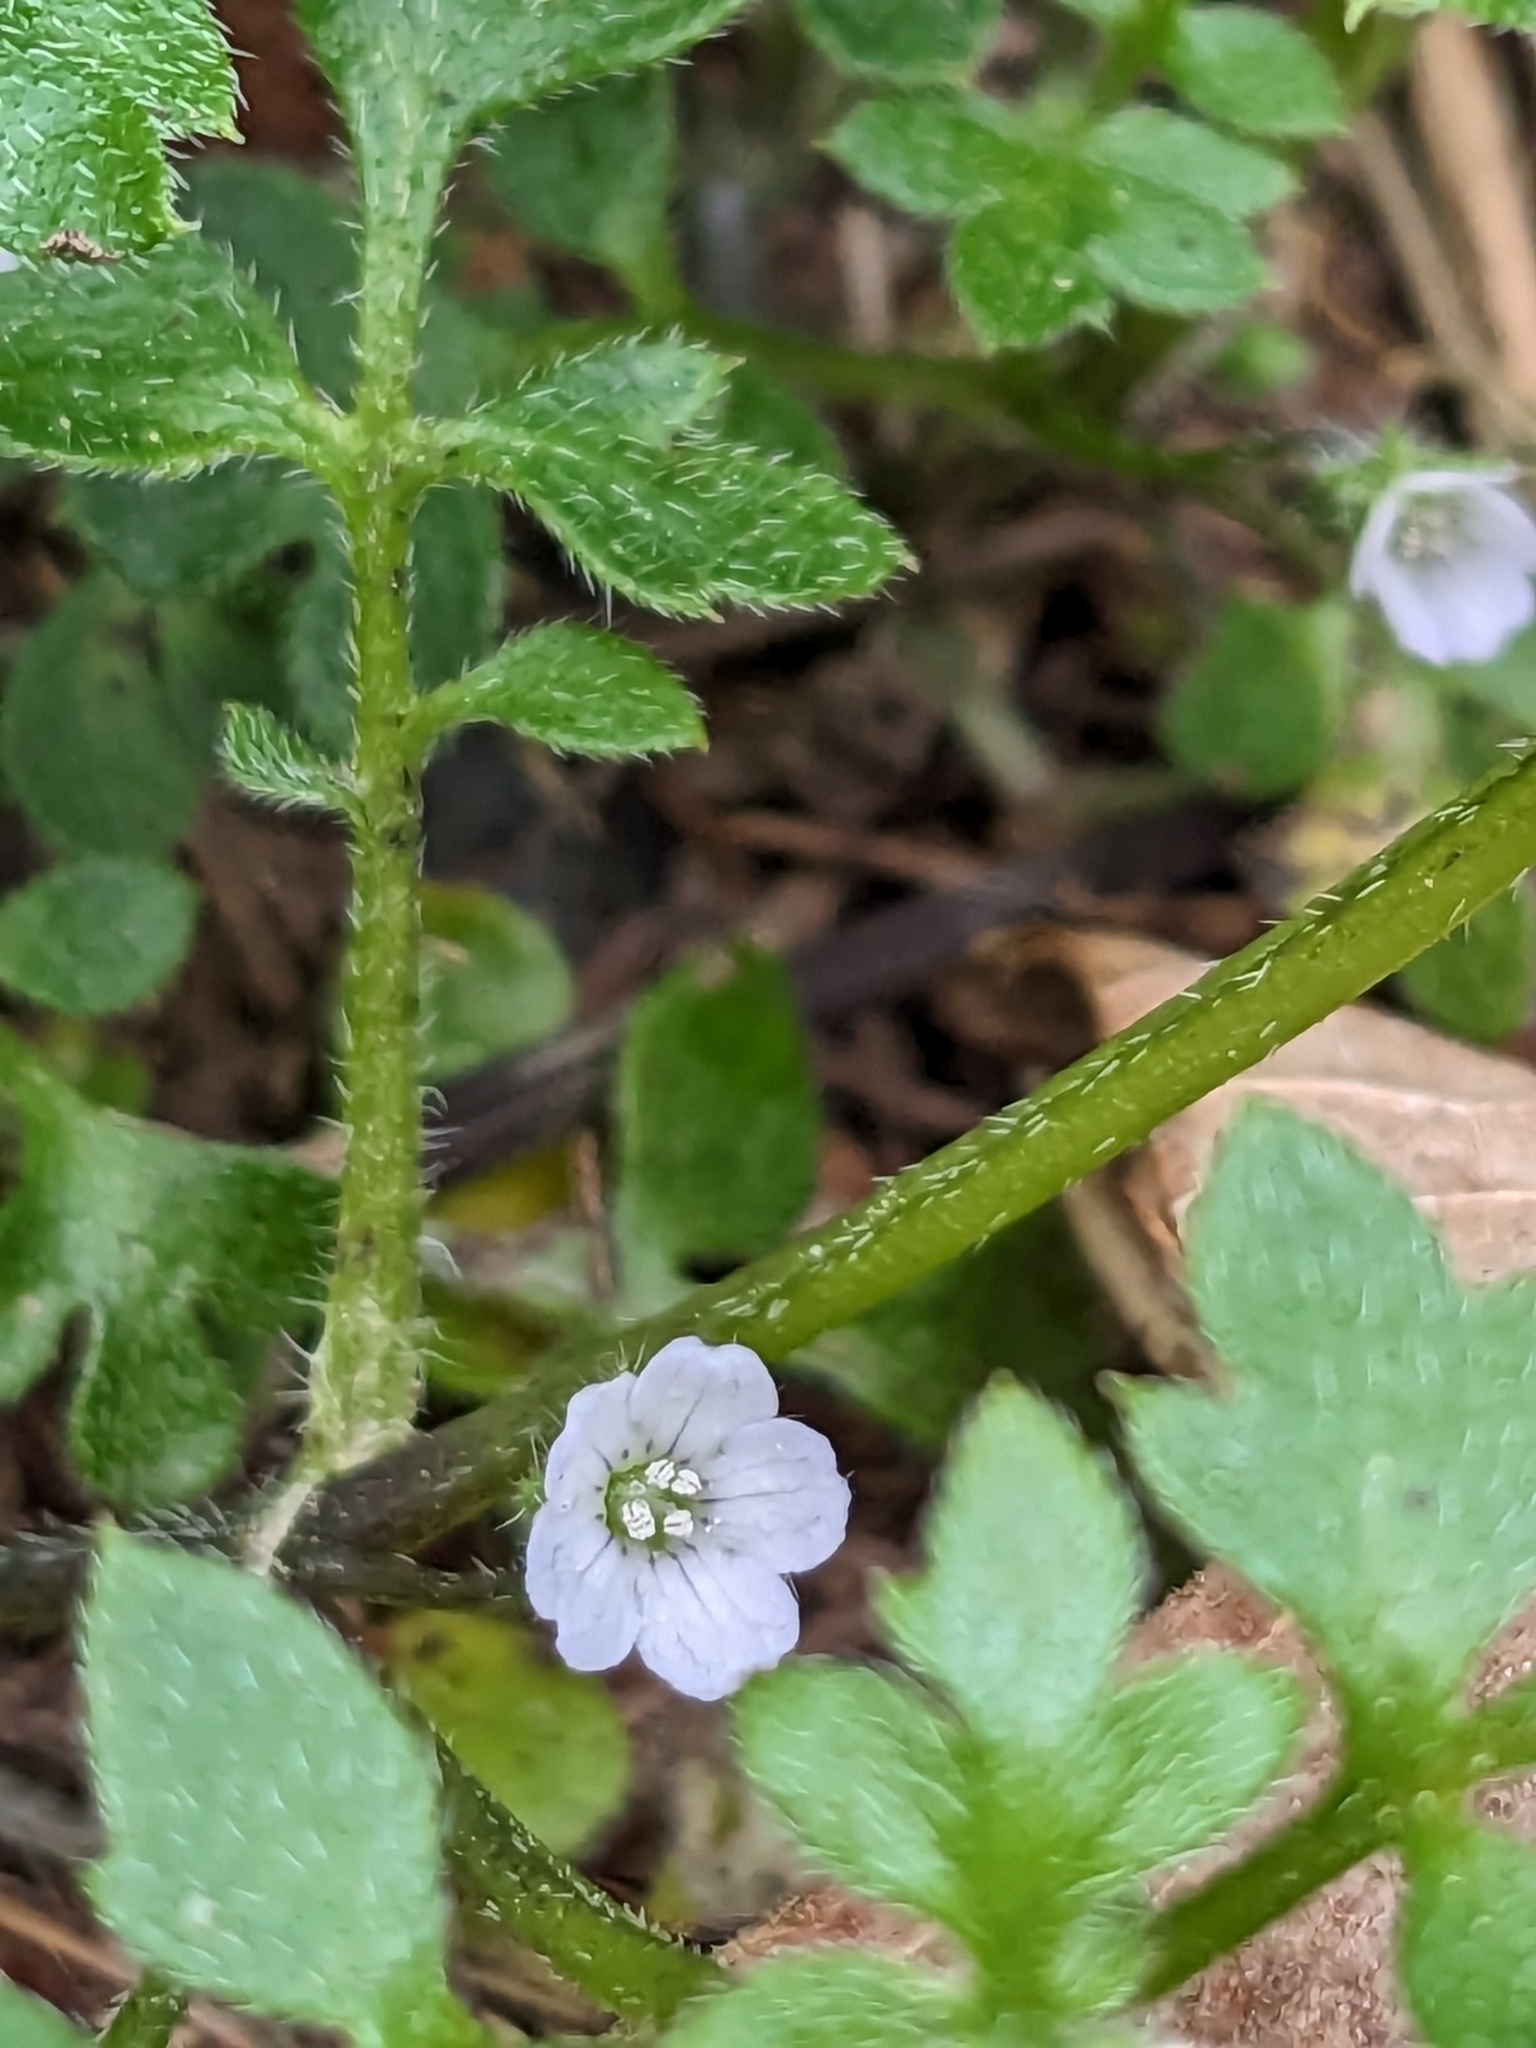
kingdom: Plantae
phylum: Tracheophyta
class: Magnoliopsida
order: Boraginales
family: Hydrophyllaceae
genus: Nemophila
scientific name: Nemophila parviflora
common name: Small-flowered baby-blue-eyes
